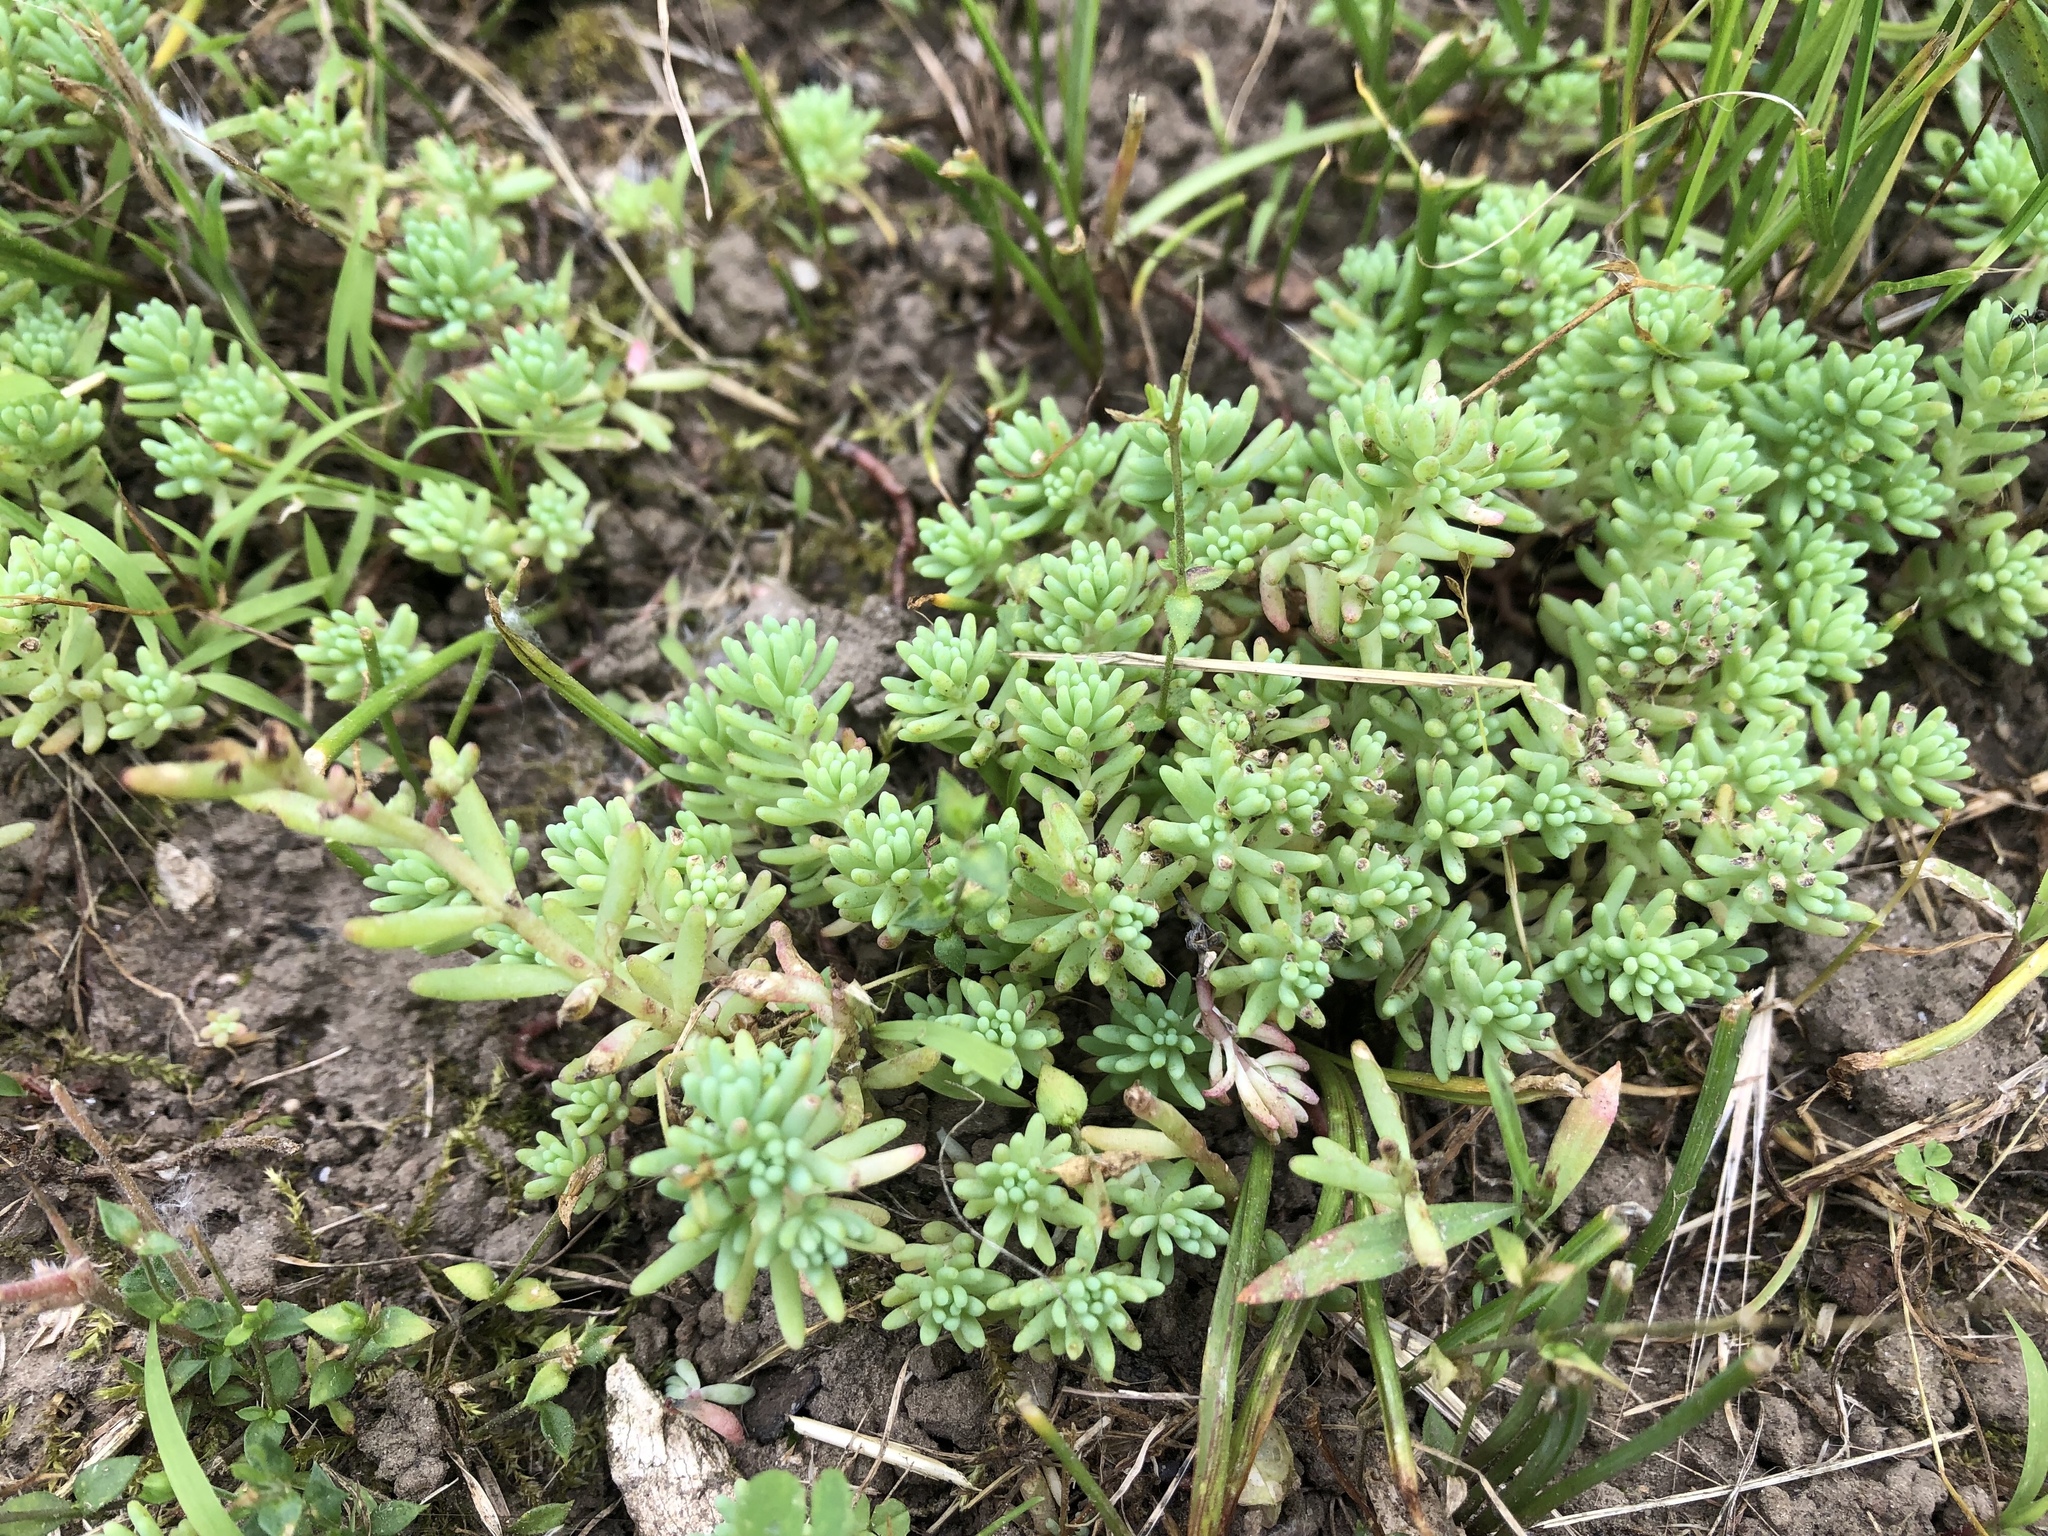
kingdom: Plantae
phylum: Tracheophyta
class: Magnoliopsida
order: Saxifragales
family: Crassulaceae
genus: Sedum
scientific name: Sedum pallidum
